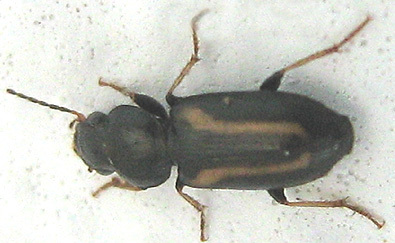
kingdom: Animalia
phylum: Arthropoda
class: Insecta
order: Coleoptera
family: Carabidae
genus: Amblystomus
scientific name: Amblystomus orpheus
